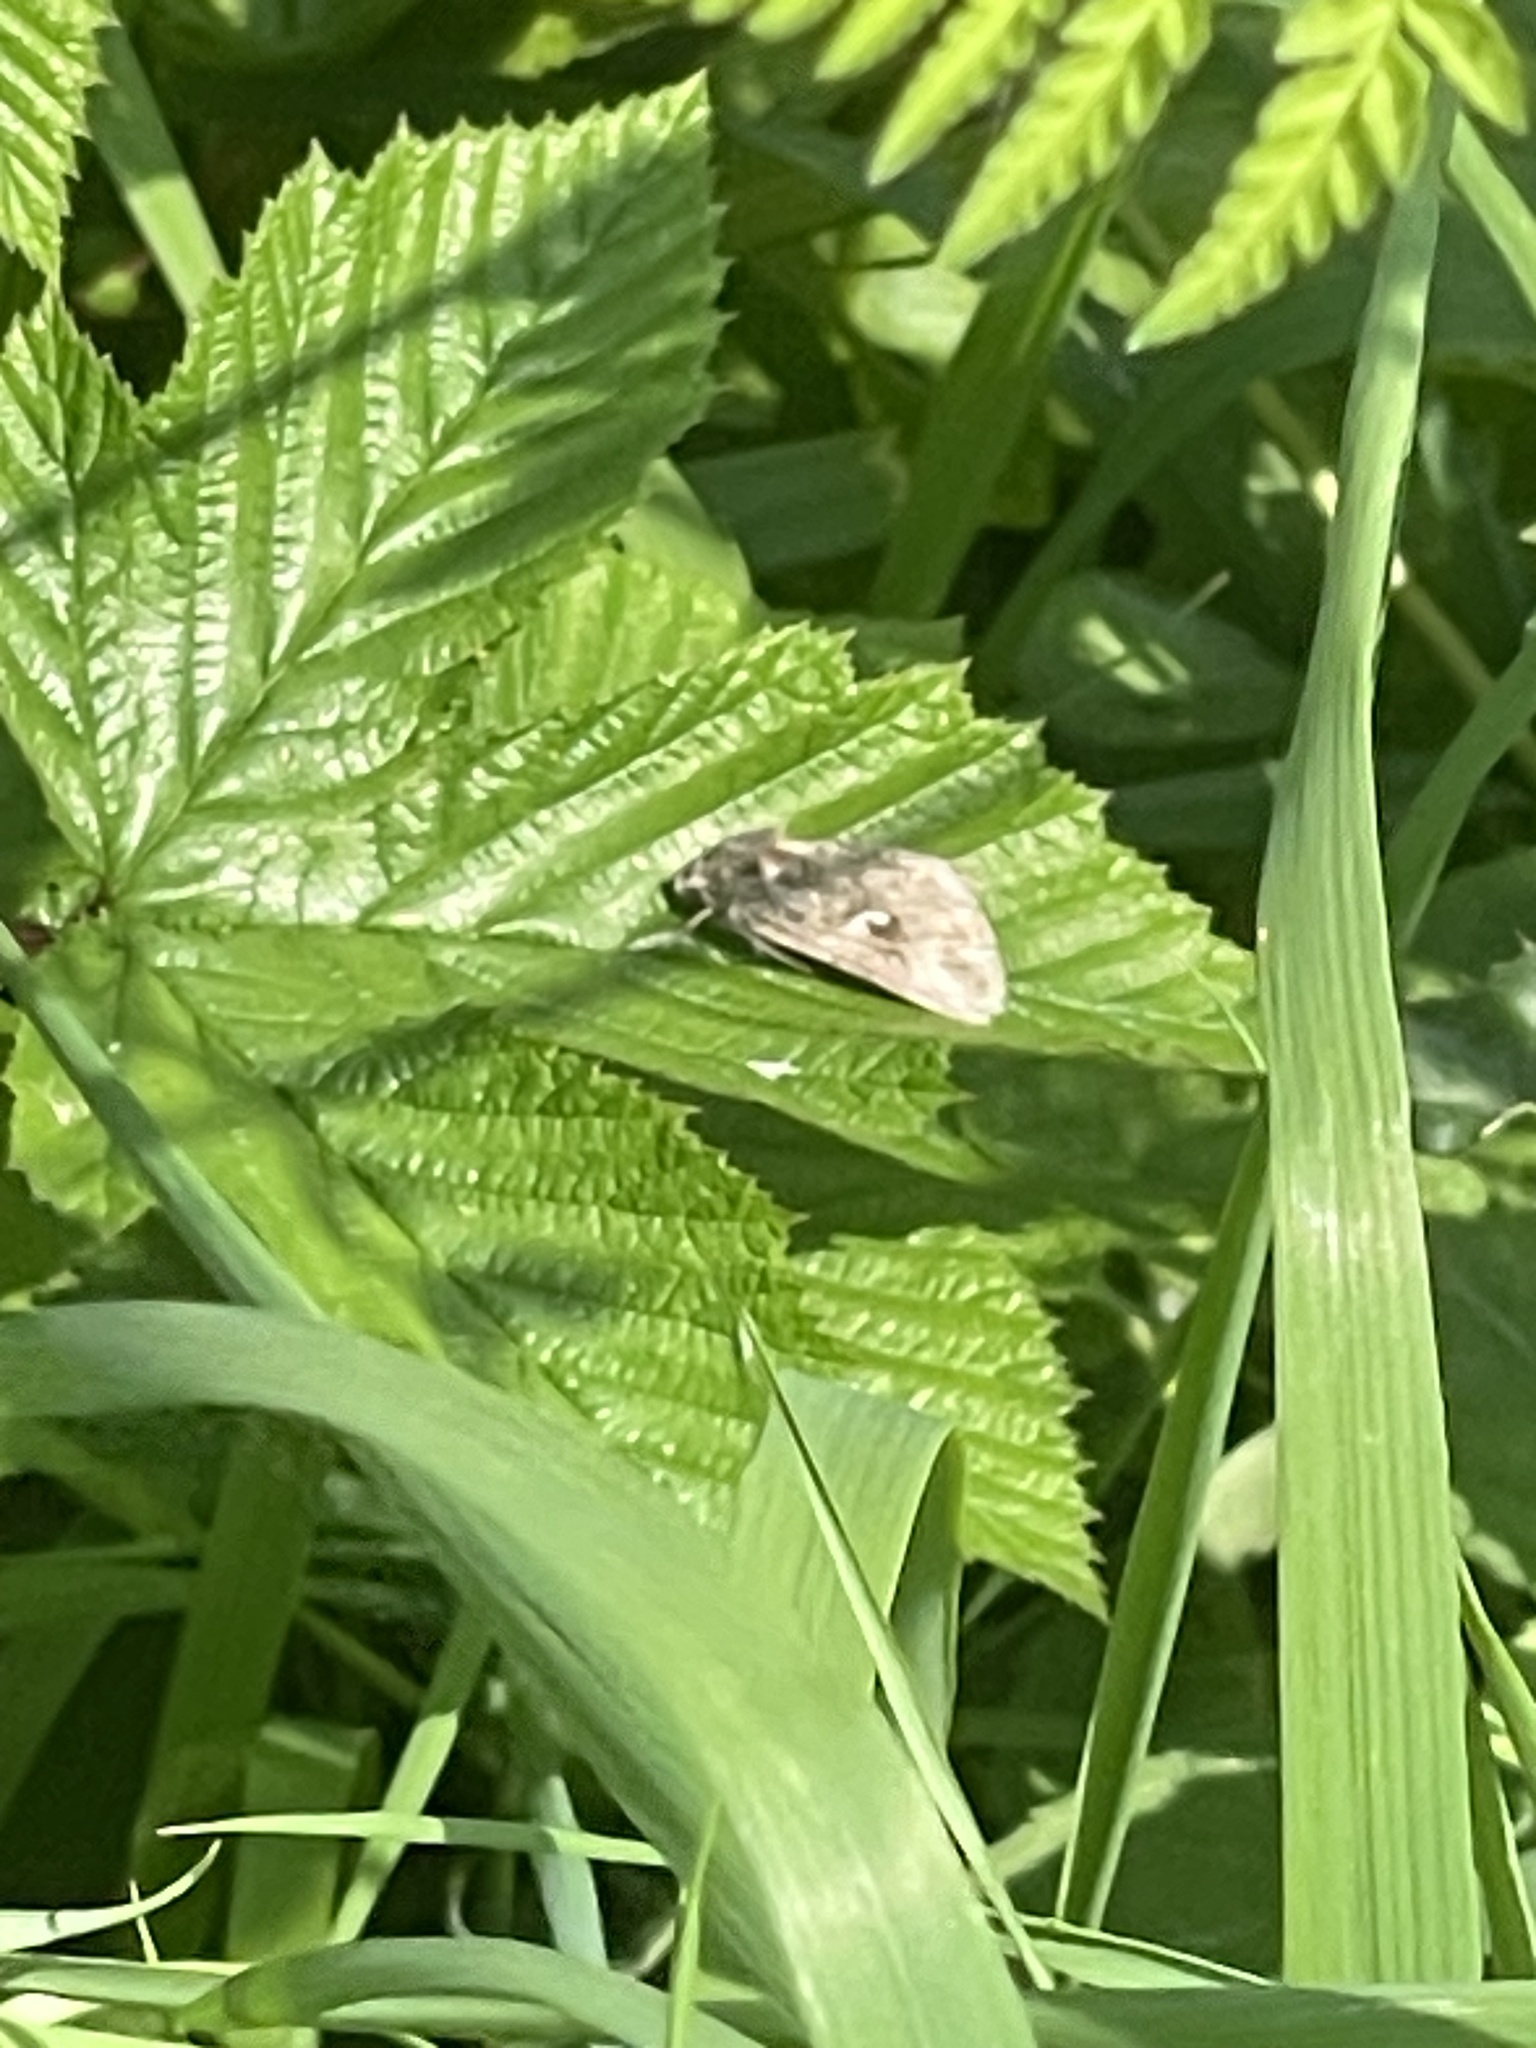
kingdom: Animalia
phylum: Arthropoda
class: Insecta
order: Lepidoptera
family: Noctuidae
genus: Autographa
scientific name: Autographa gamma
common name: Silver y
